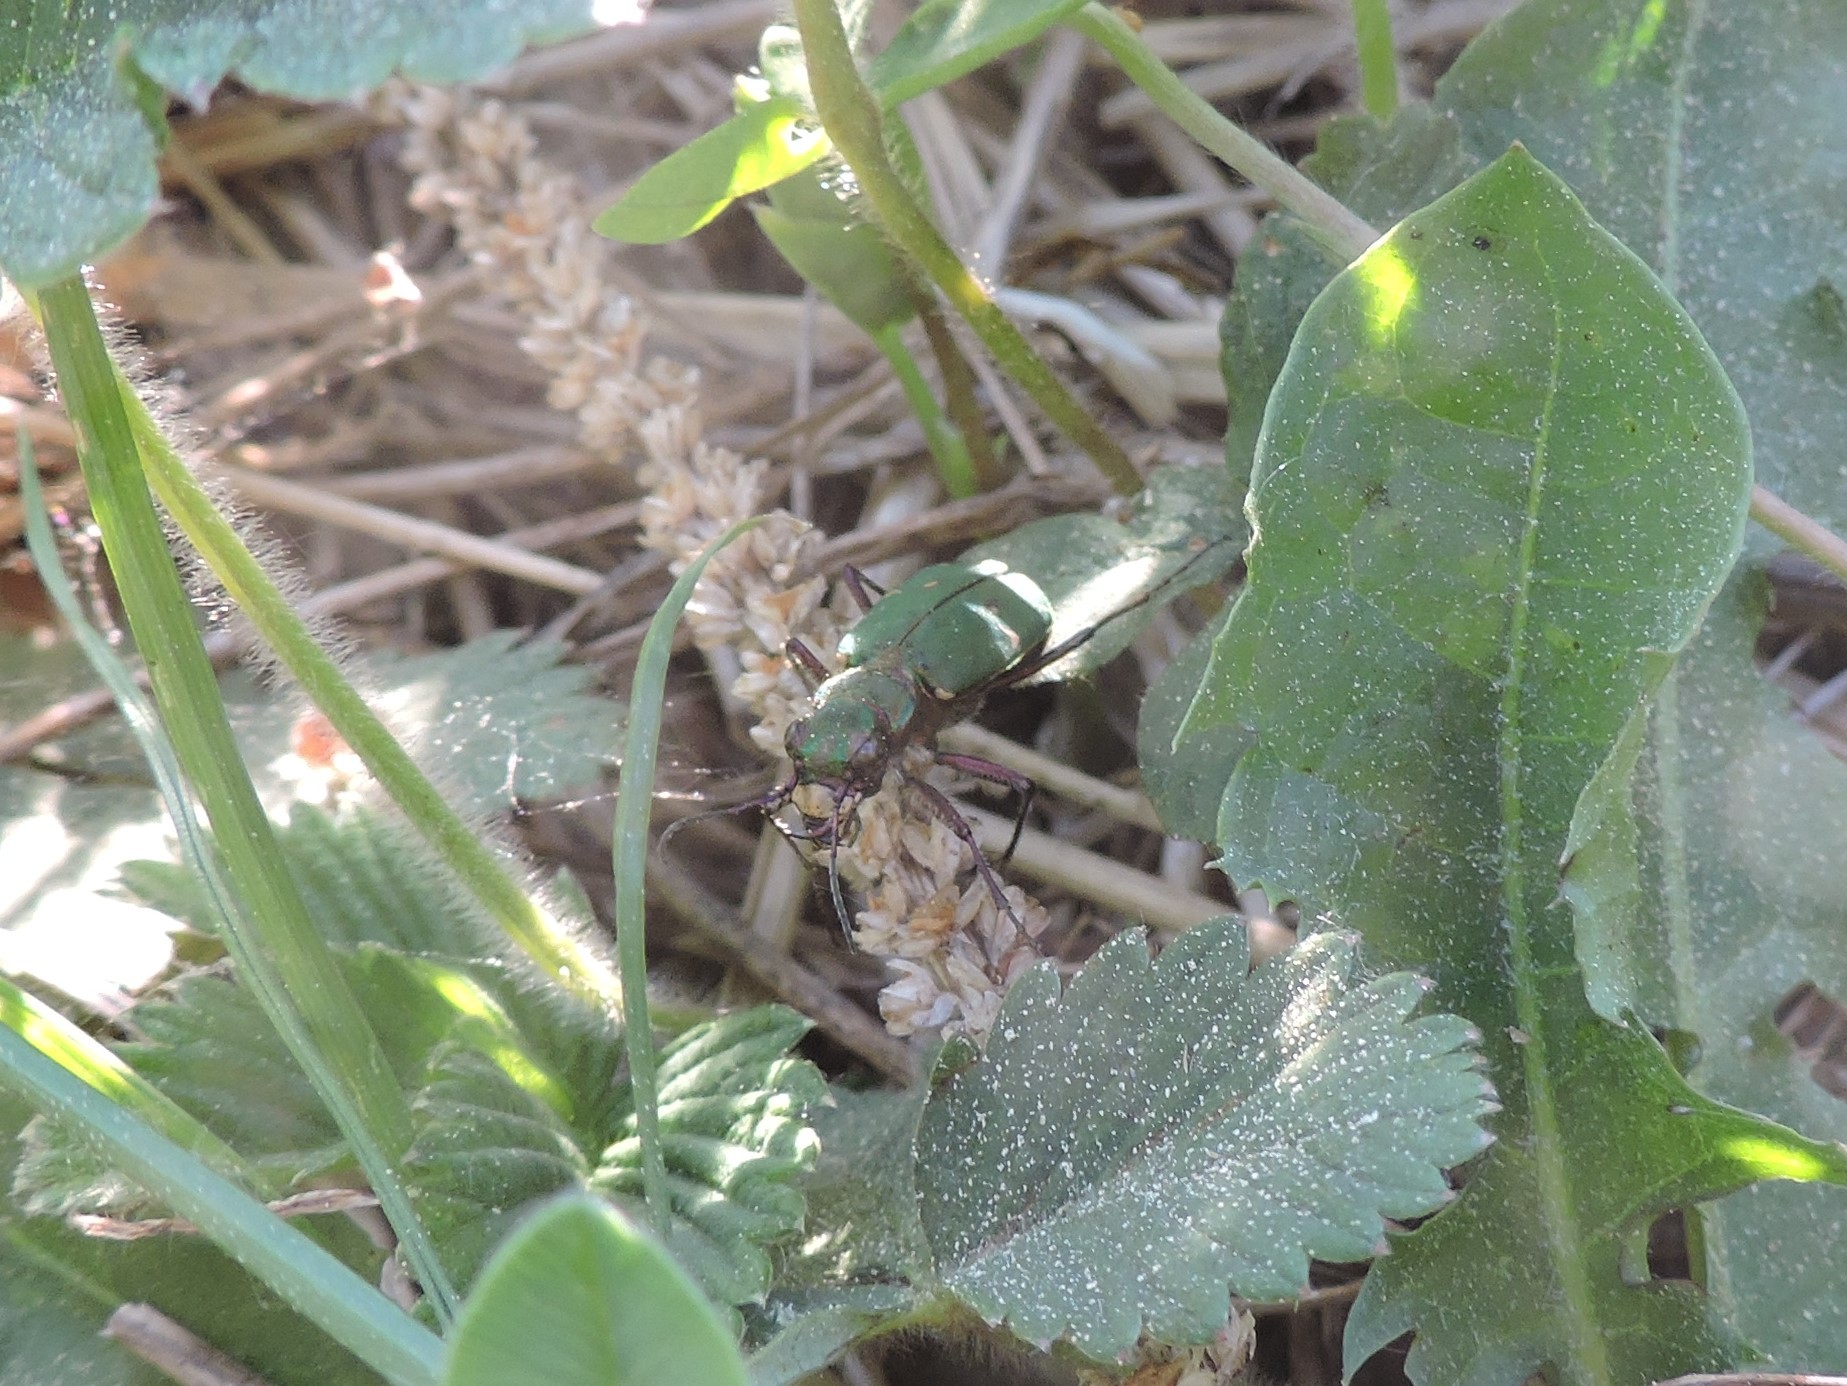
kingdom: Animalia
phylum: Arthropoda
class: Insecta
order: Coleoptera
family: Carabidae
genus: Cicindela
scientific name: Cicindela campestris
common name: Common tiger beetle
